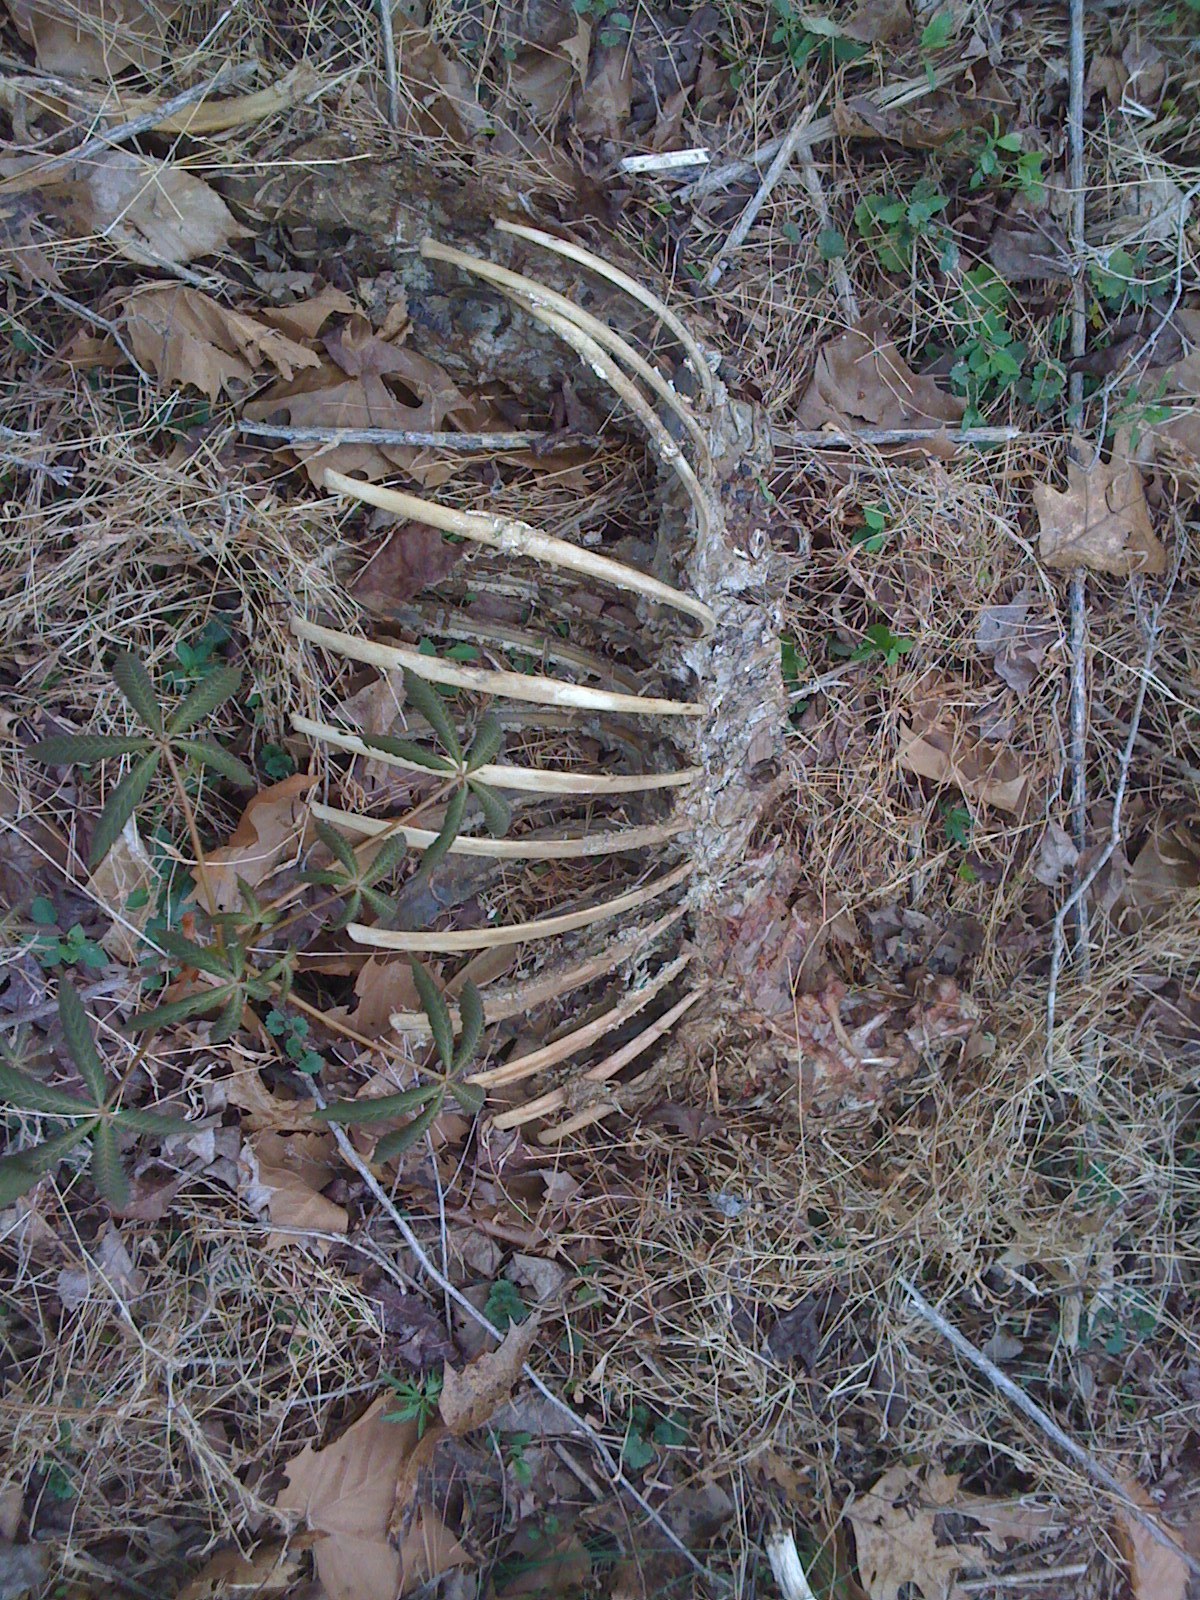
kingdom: Animalia
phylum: Chordata
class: Mammalia
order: Artiodactyla
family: Cervidae
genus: Odocoileus
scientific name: Odocoileus virginianus
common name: White-tailed deer
